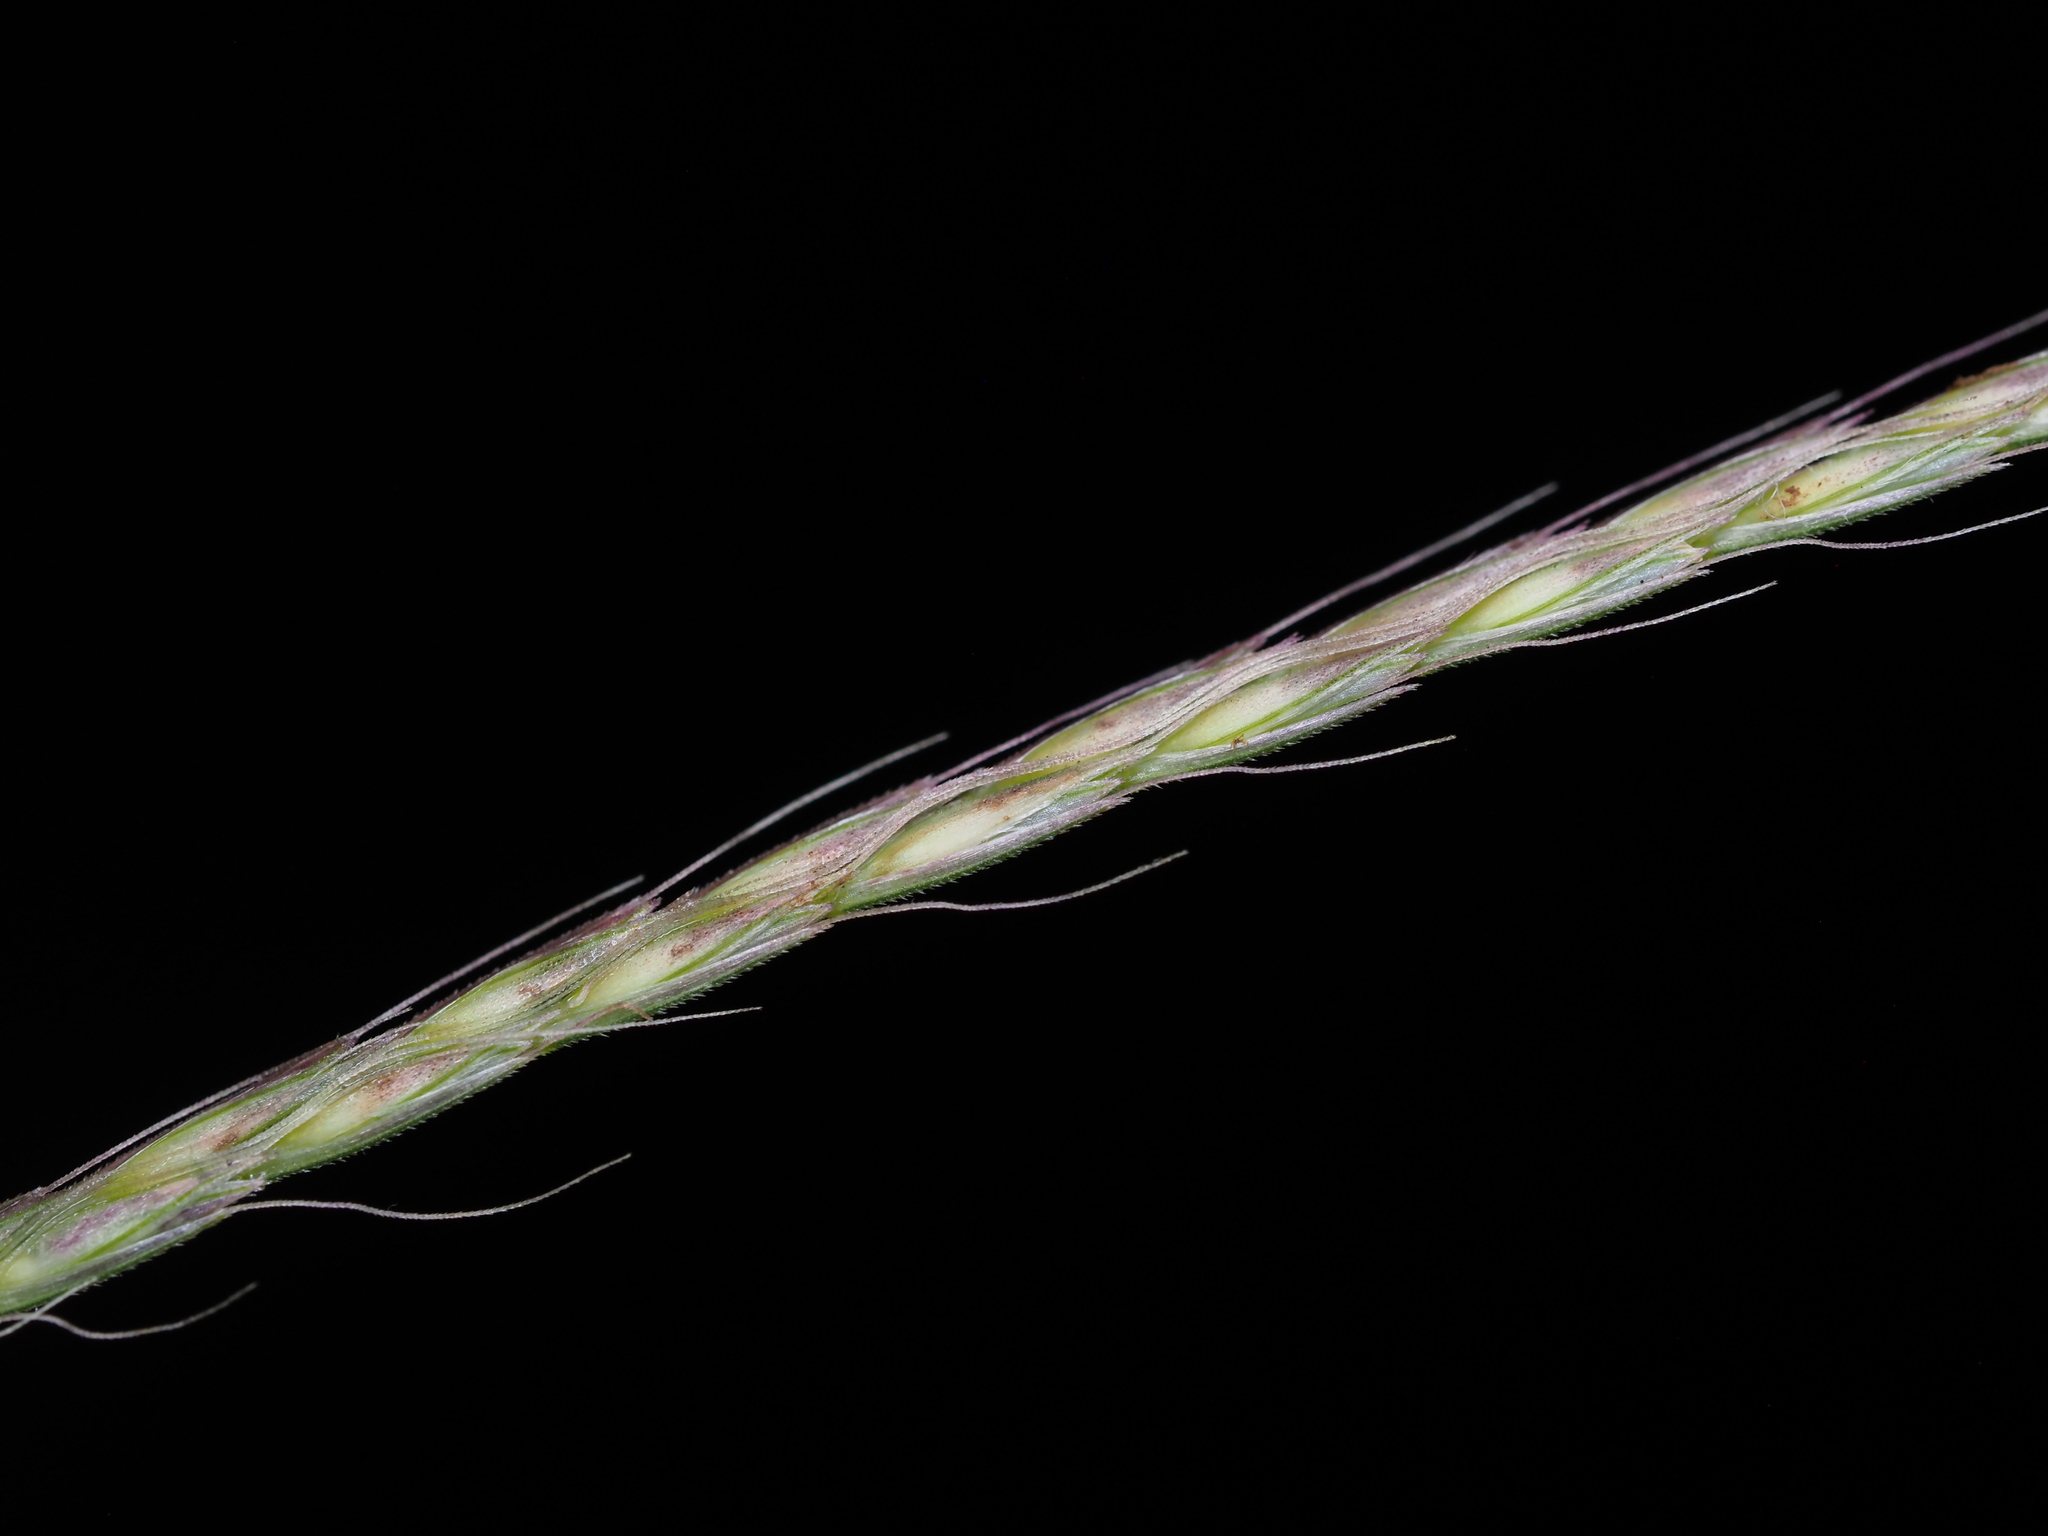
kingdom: Plantae
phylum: Tracheophyta
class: Liliopsida
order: Poales
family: Poaceae
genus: Chloris
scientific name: Chloris divaricata
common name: Spreading windmill grass
